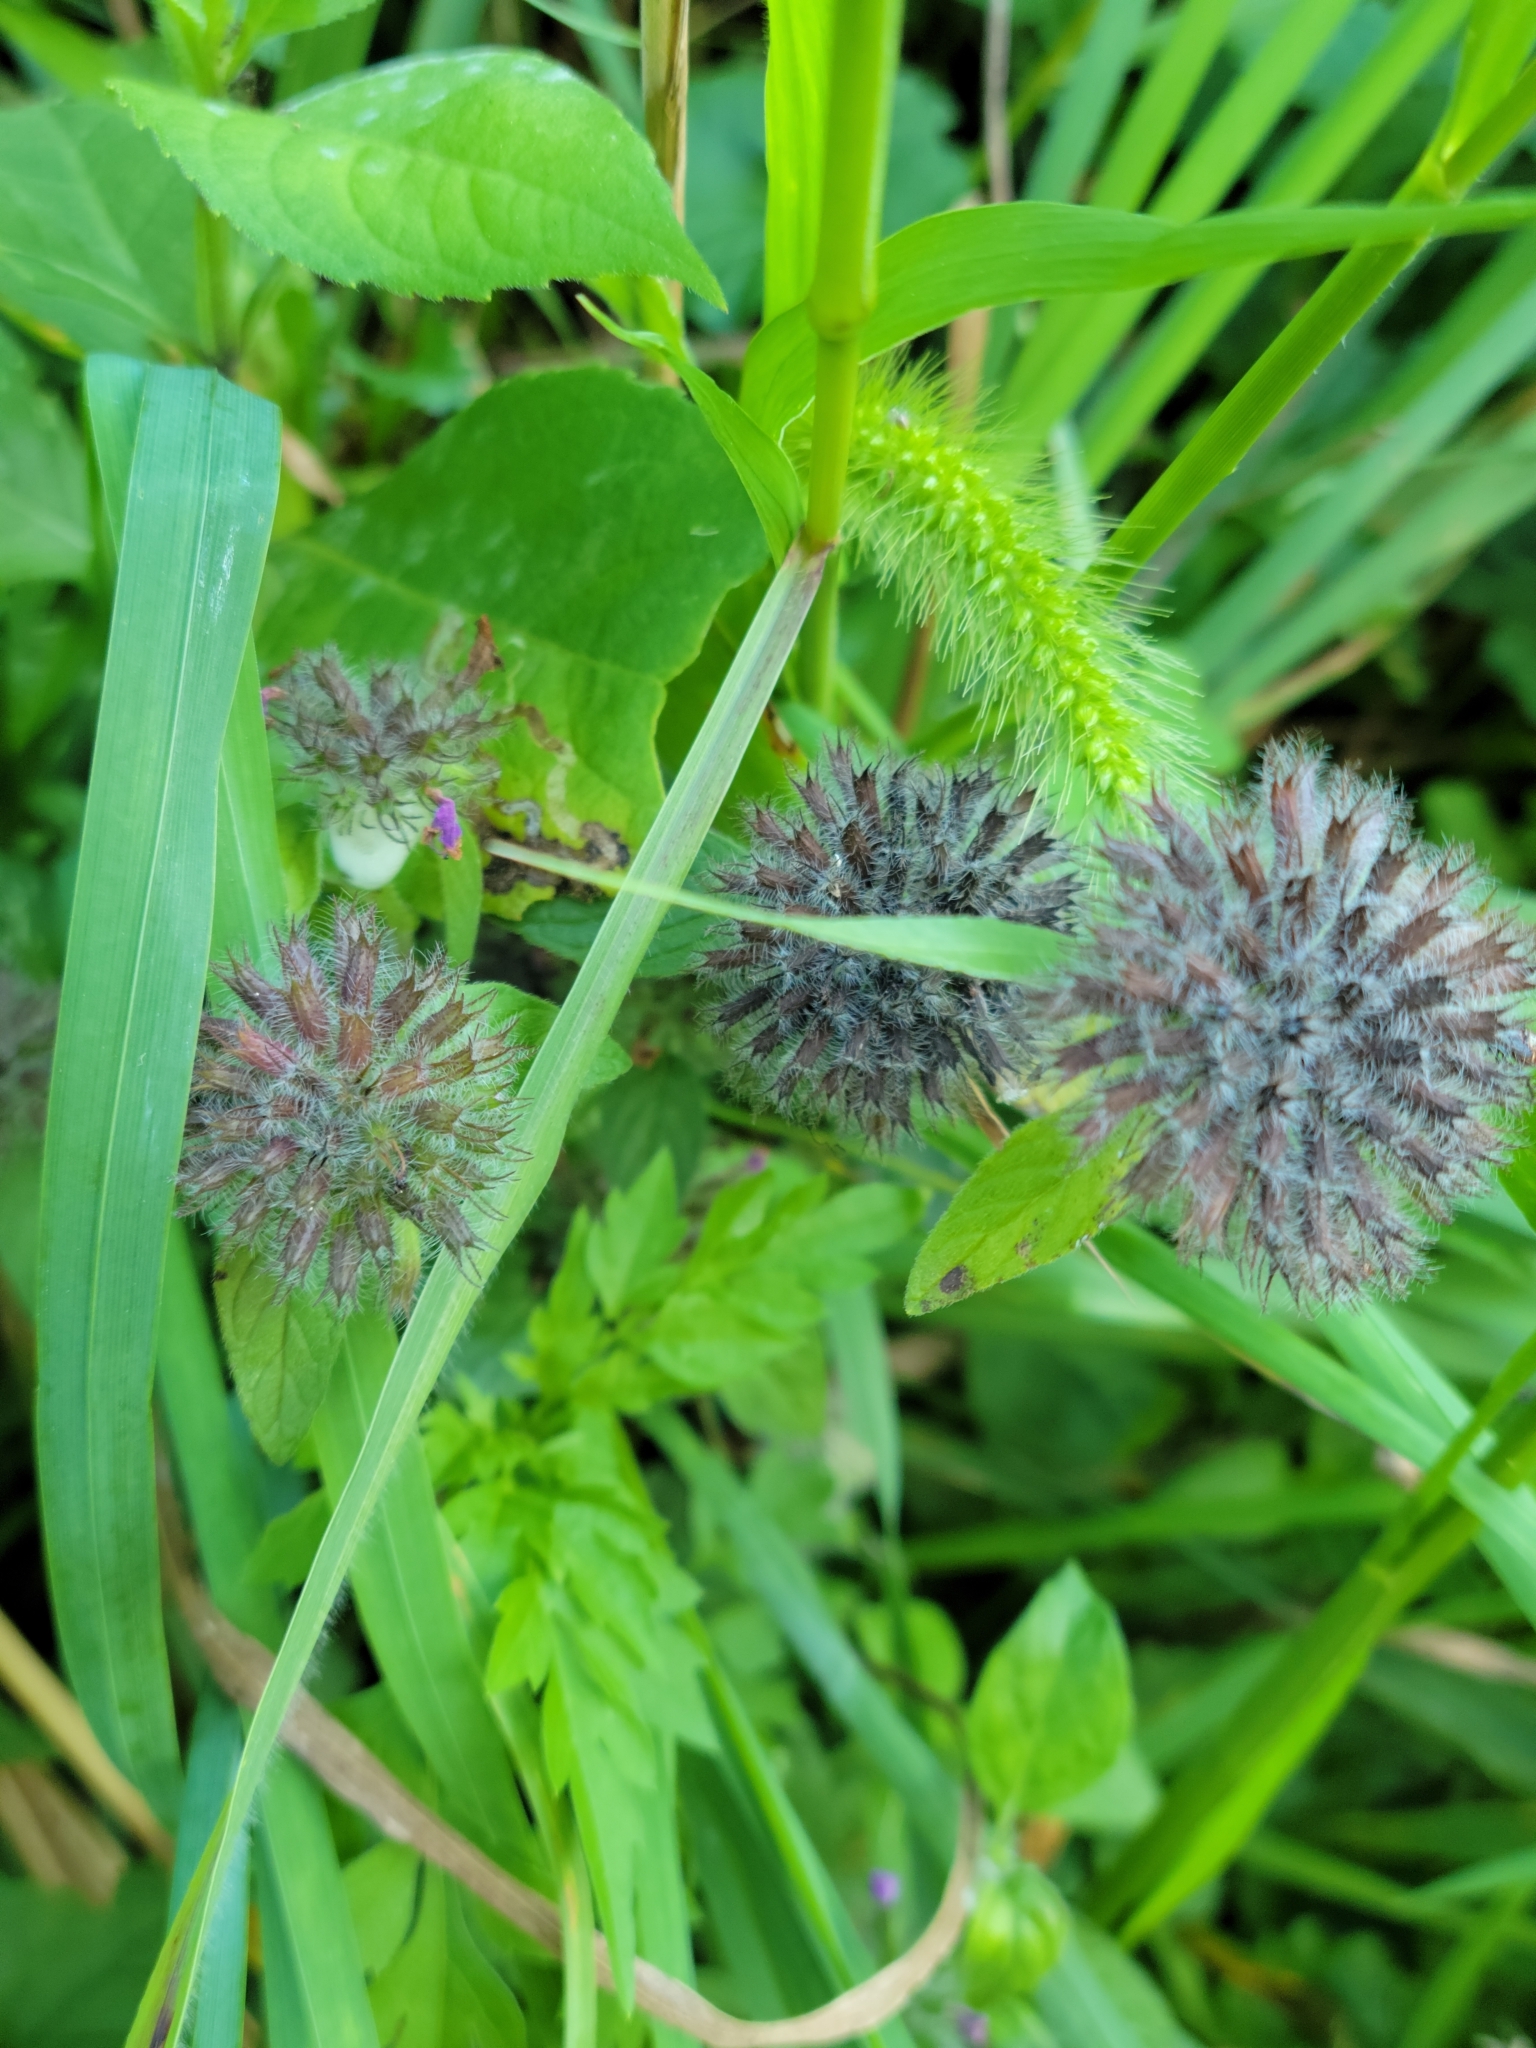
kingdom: Plantae
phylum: Tracheophyta
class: Magnoliopsida
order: Lamiales
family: Lamiaceae
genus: Clinopodium
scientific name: Clinopodium vulgare
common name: Wild basil
